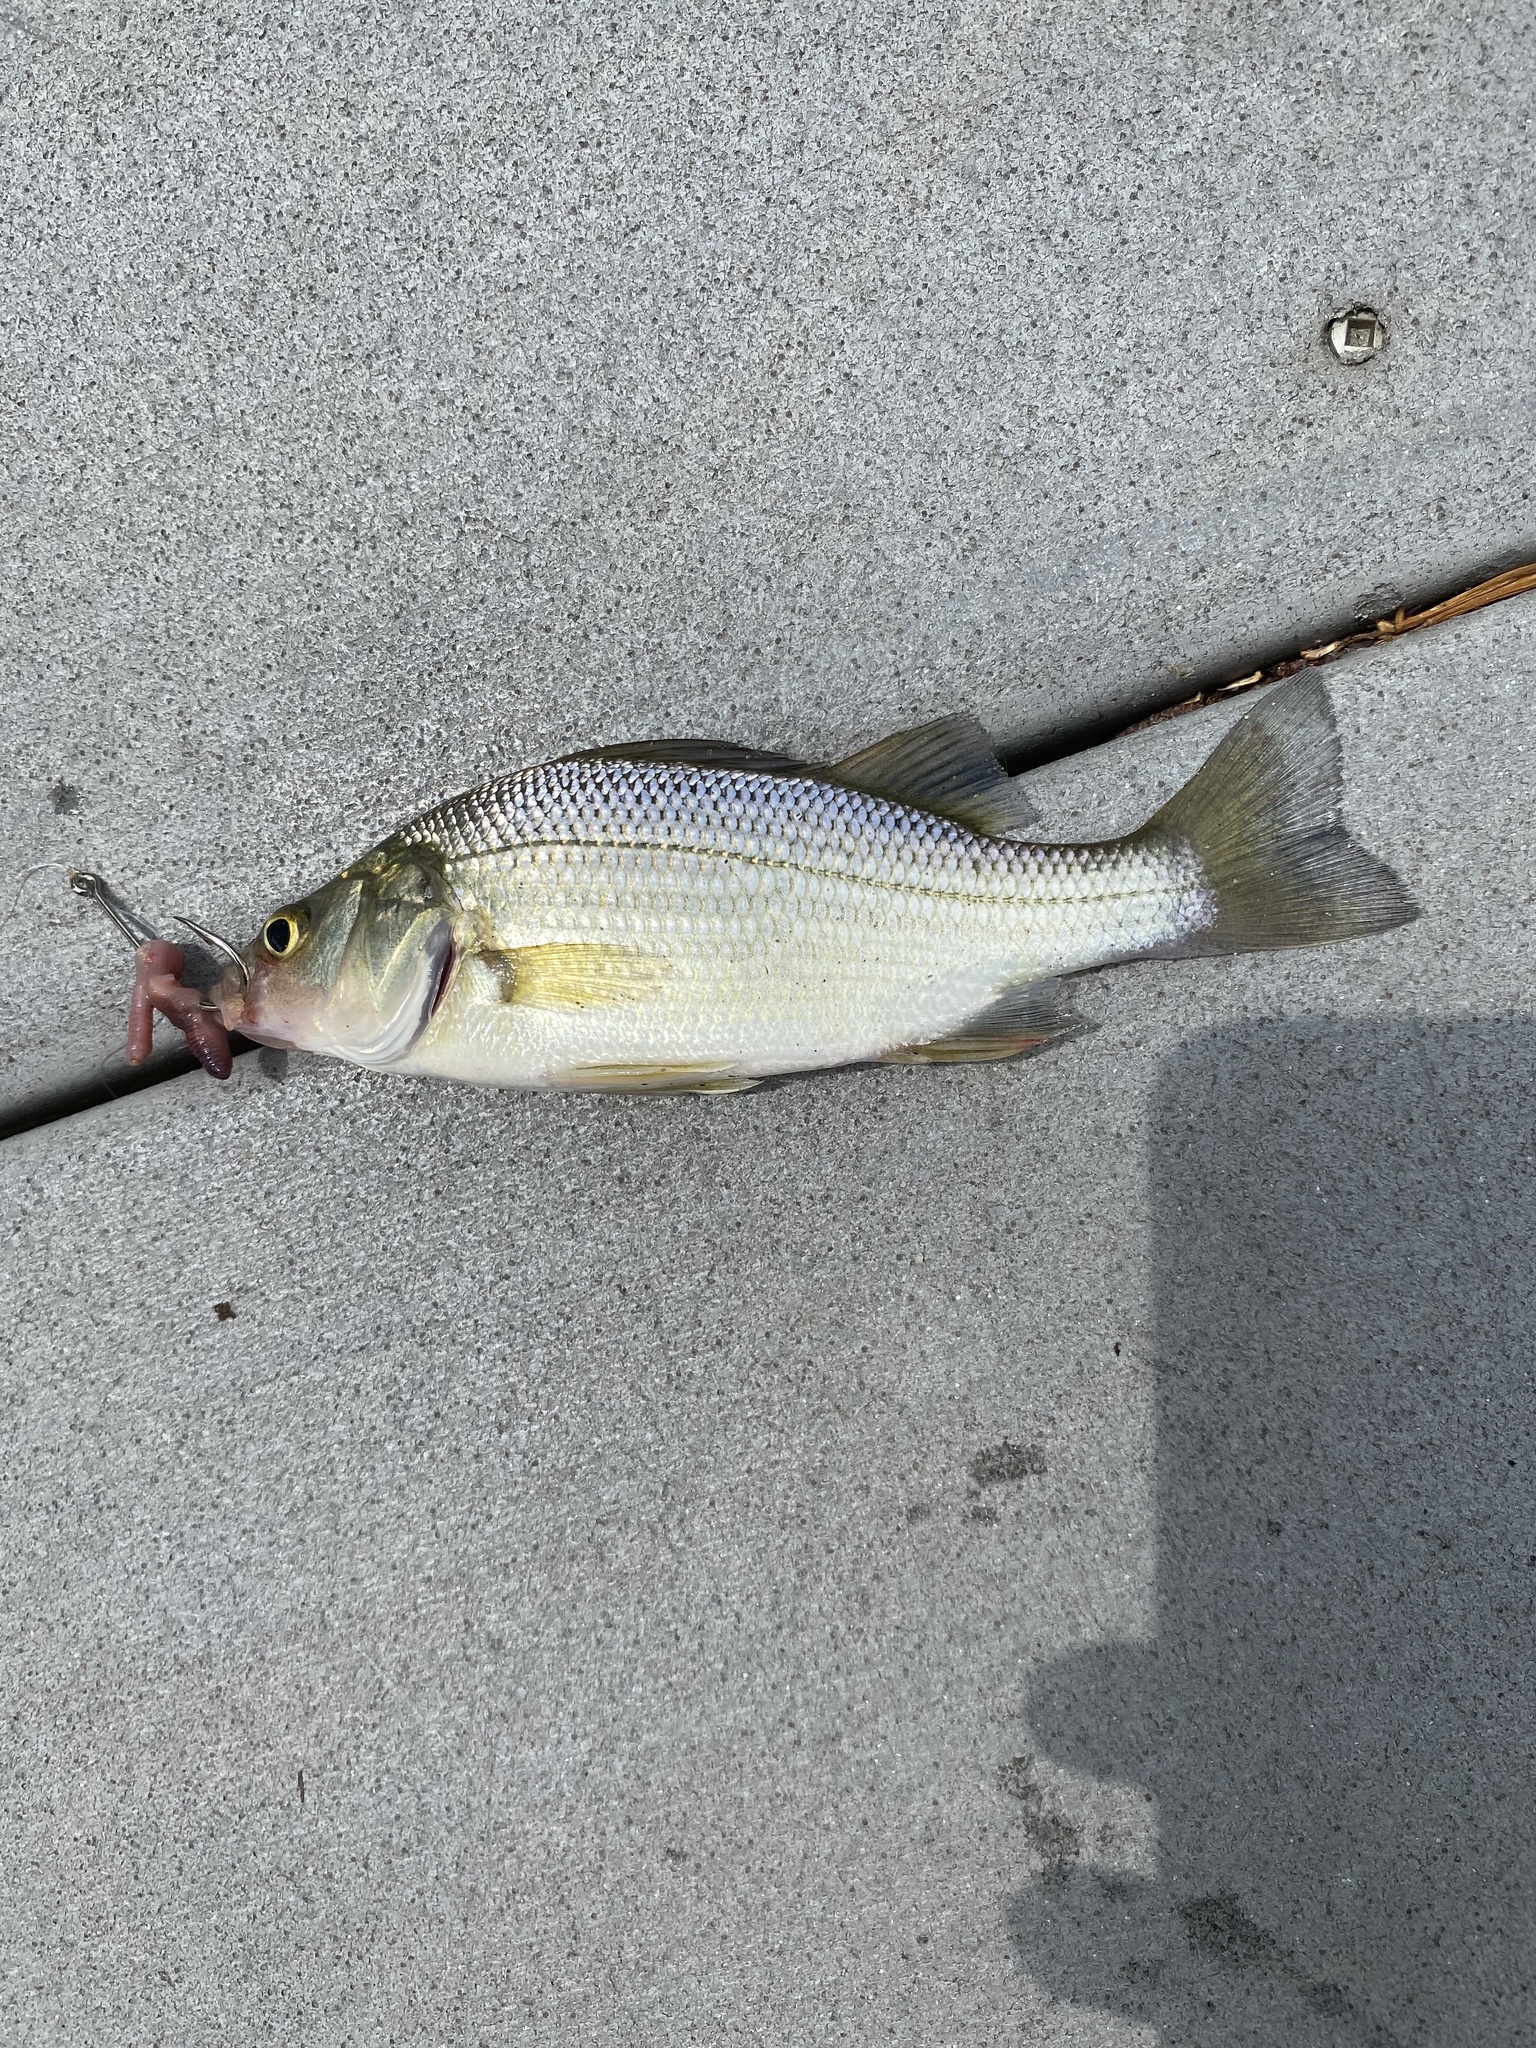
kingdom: Animalia
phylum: Chordata
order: Perciformes
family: Moronidae
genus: Morone
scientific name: Morone americana
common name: White perch
